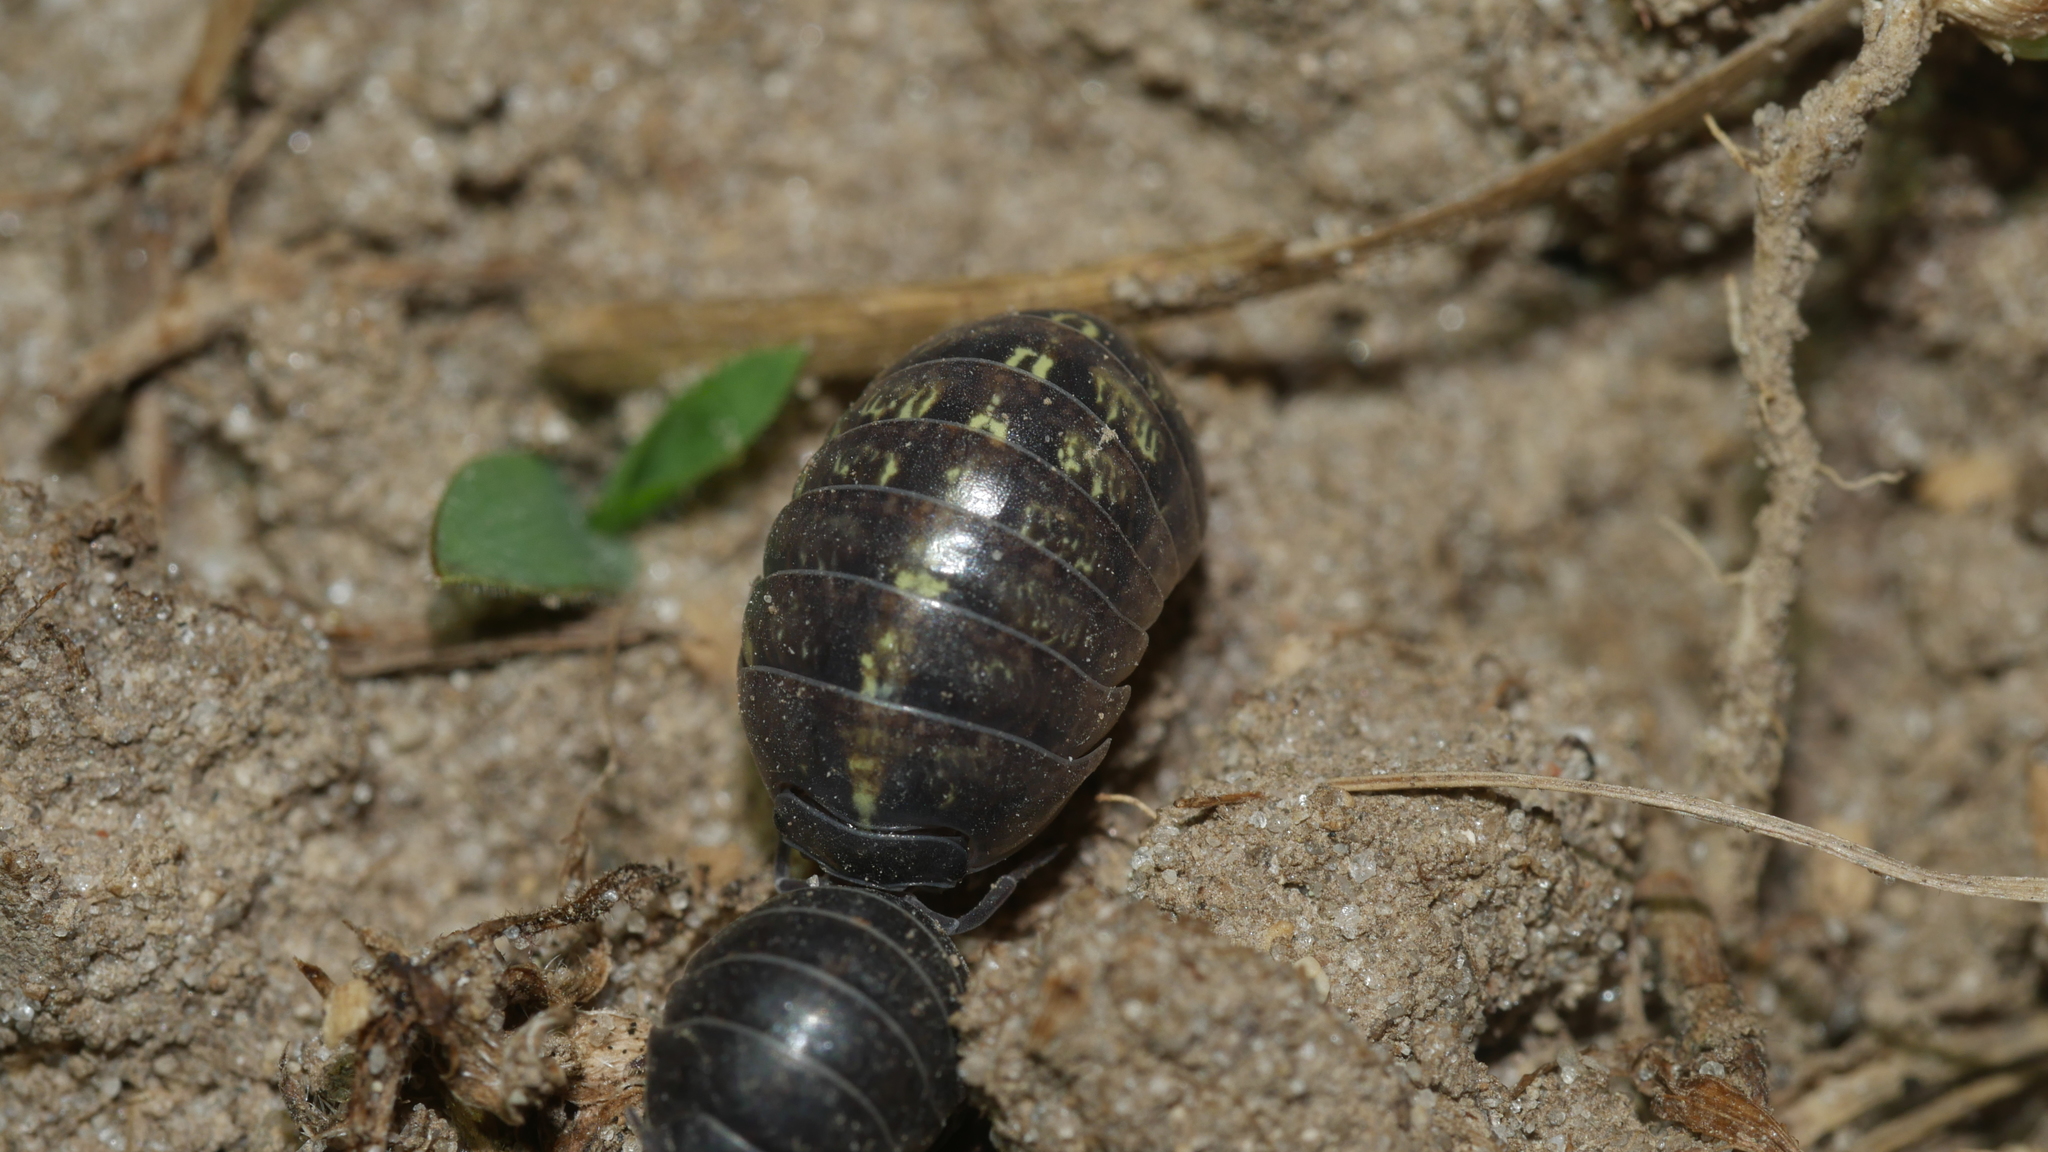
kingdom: Animalia
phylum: Arthropoda
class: Malacostraca
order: Isopoda
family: Armadillidiidae
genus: Armadillidium
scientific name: Armadillidium vulgare
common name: Common pill woodlouse
